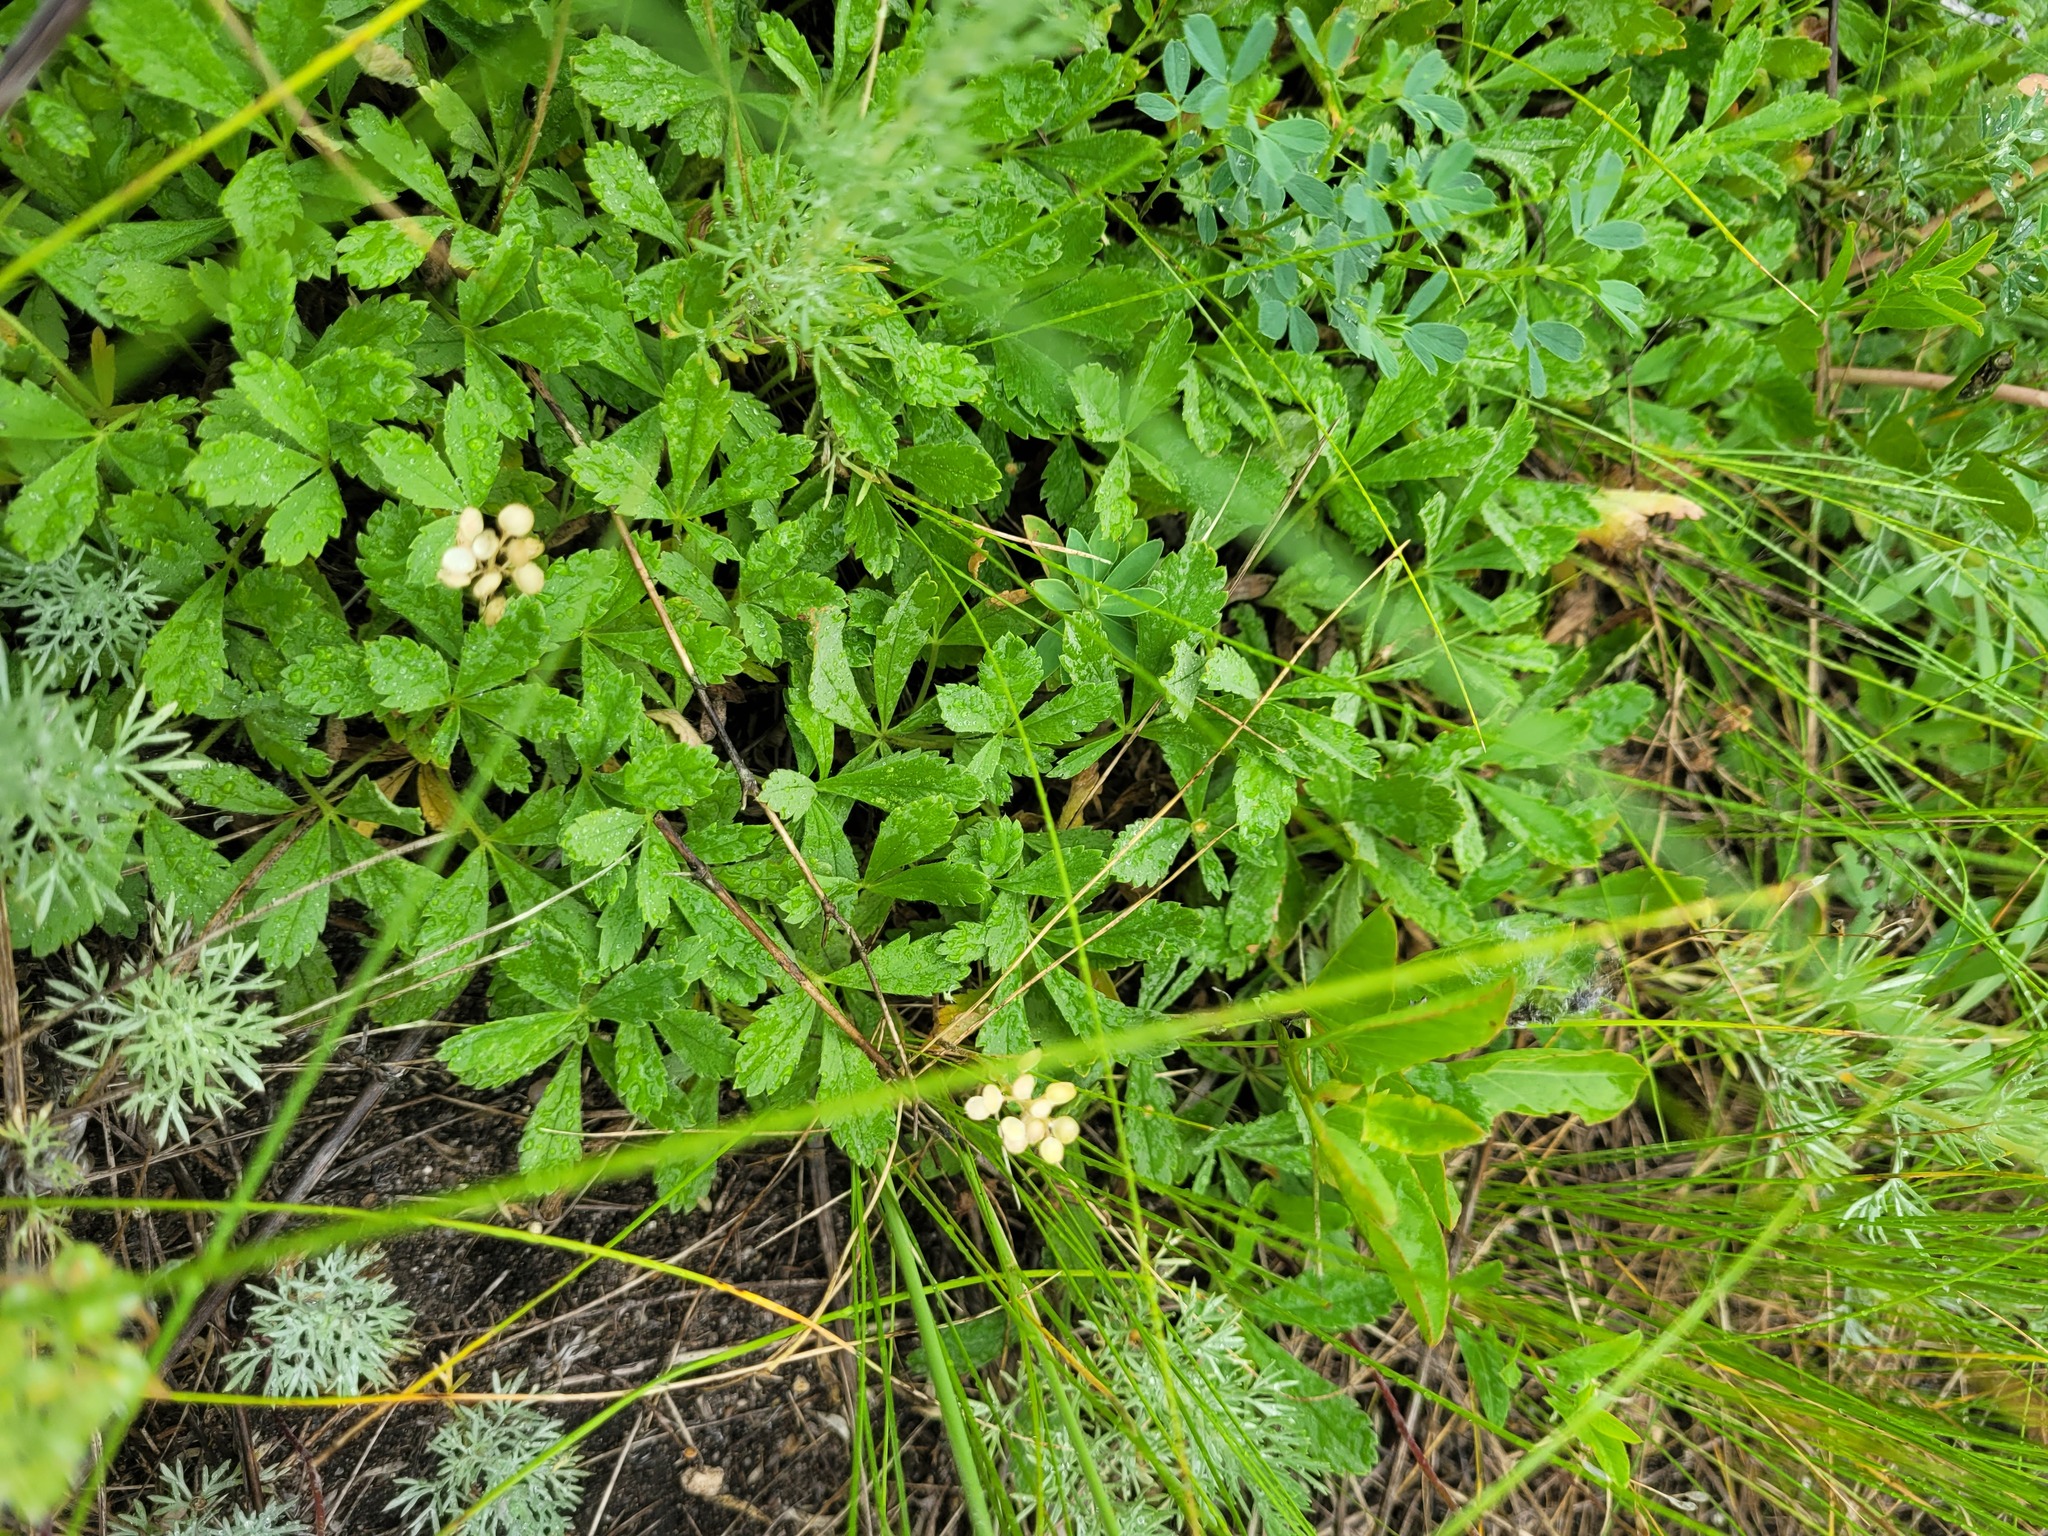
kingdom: Plantae
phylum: Tracheophyta
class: Magnoliopsida
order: Rosales
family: Rosaceae
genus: Potentilla
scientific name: Potentilla incana
